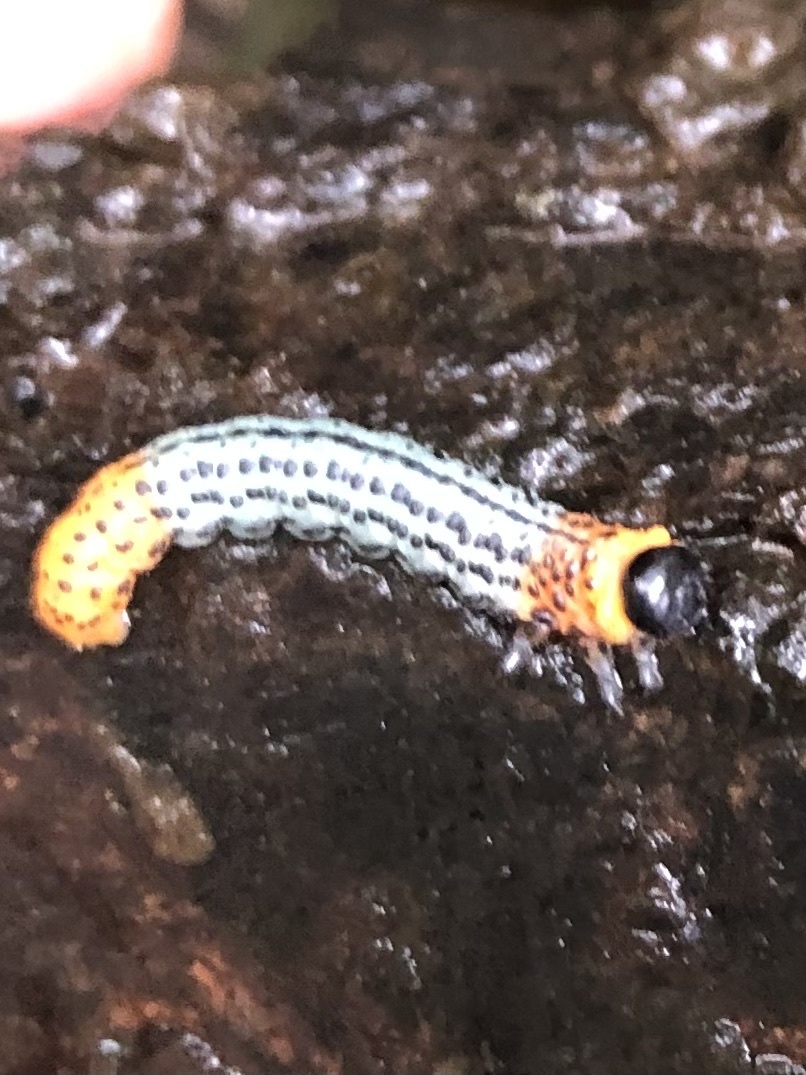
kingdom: Animalia
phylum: Arthropoda
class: Insecta
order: Hymenoptera
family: Tenthredinidae
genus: Nematus
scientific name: Nematus salicis
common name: Willow sawfly
